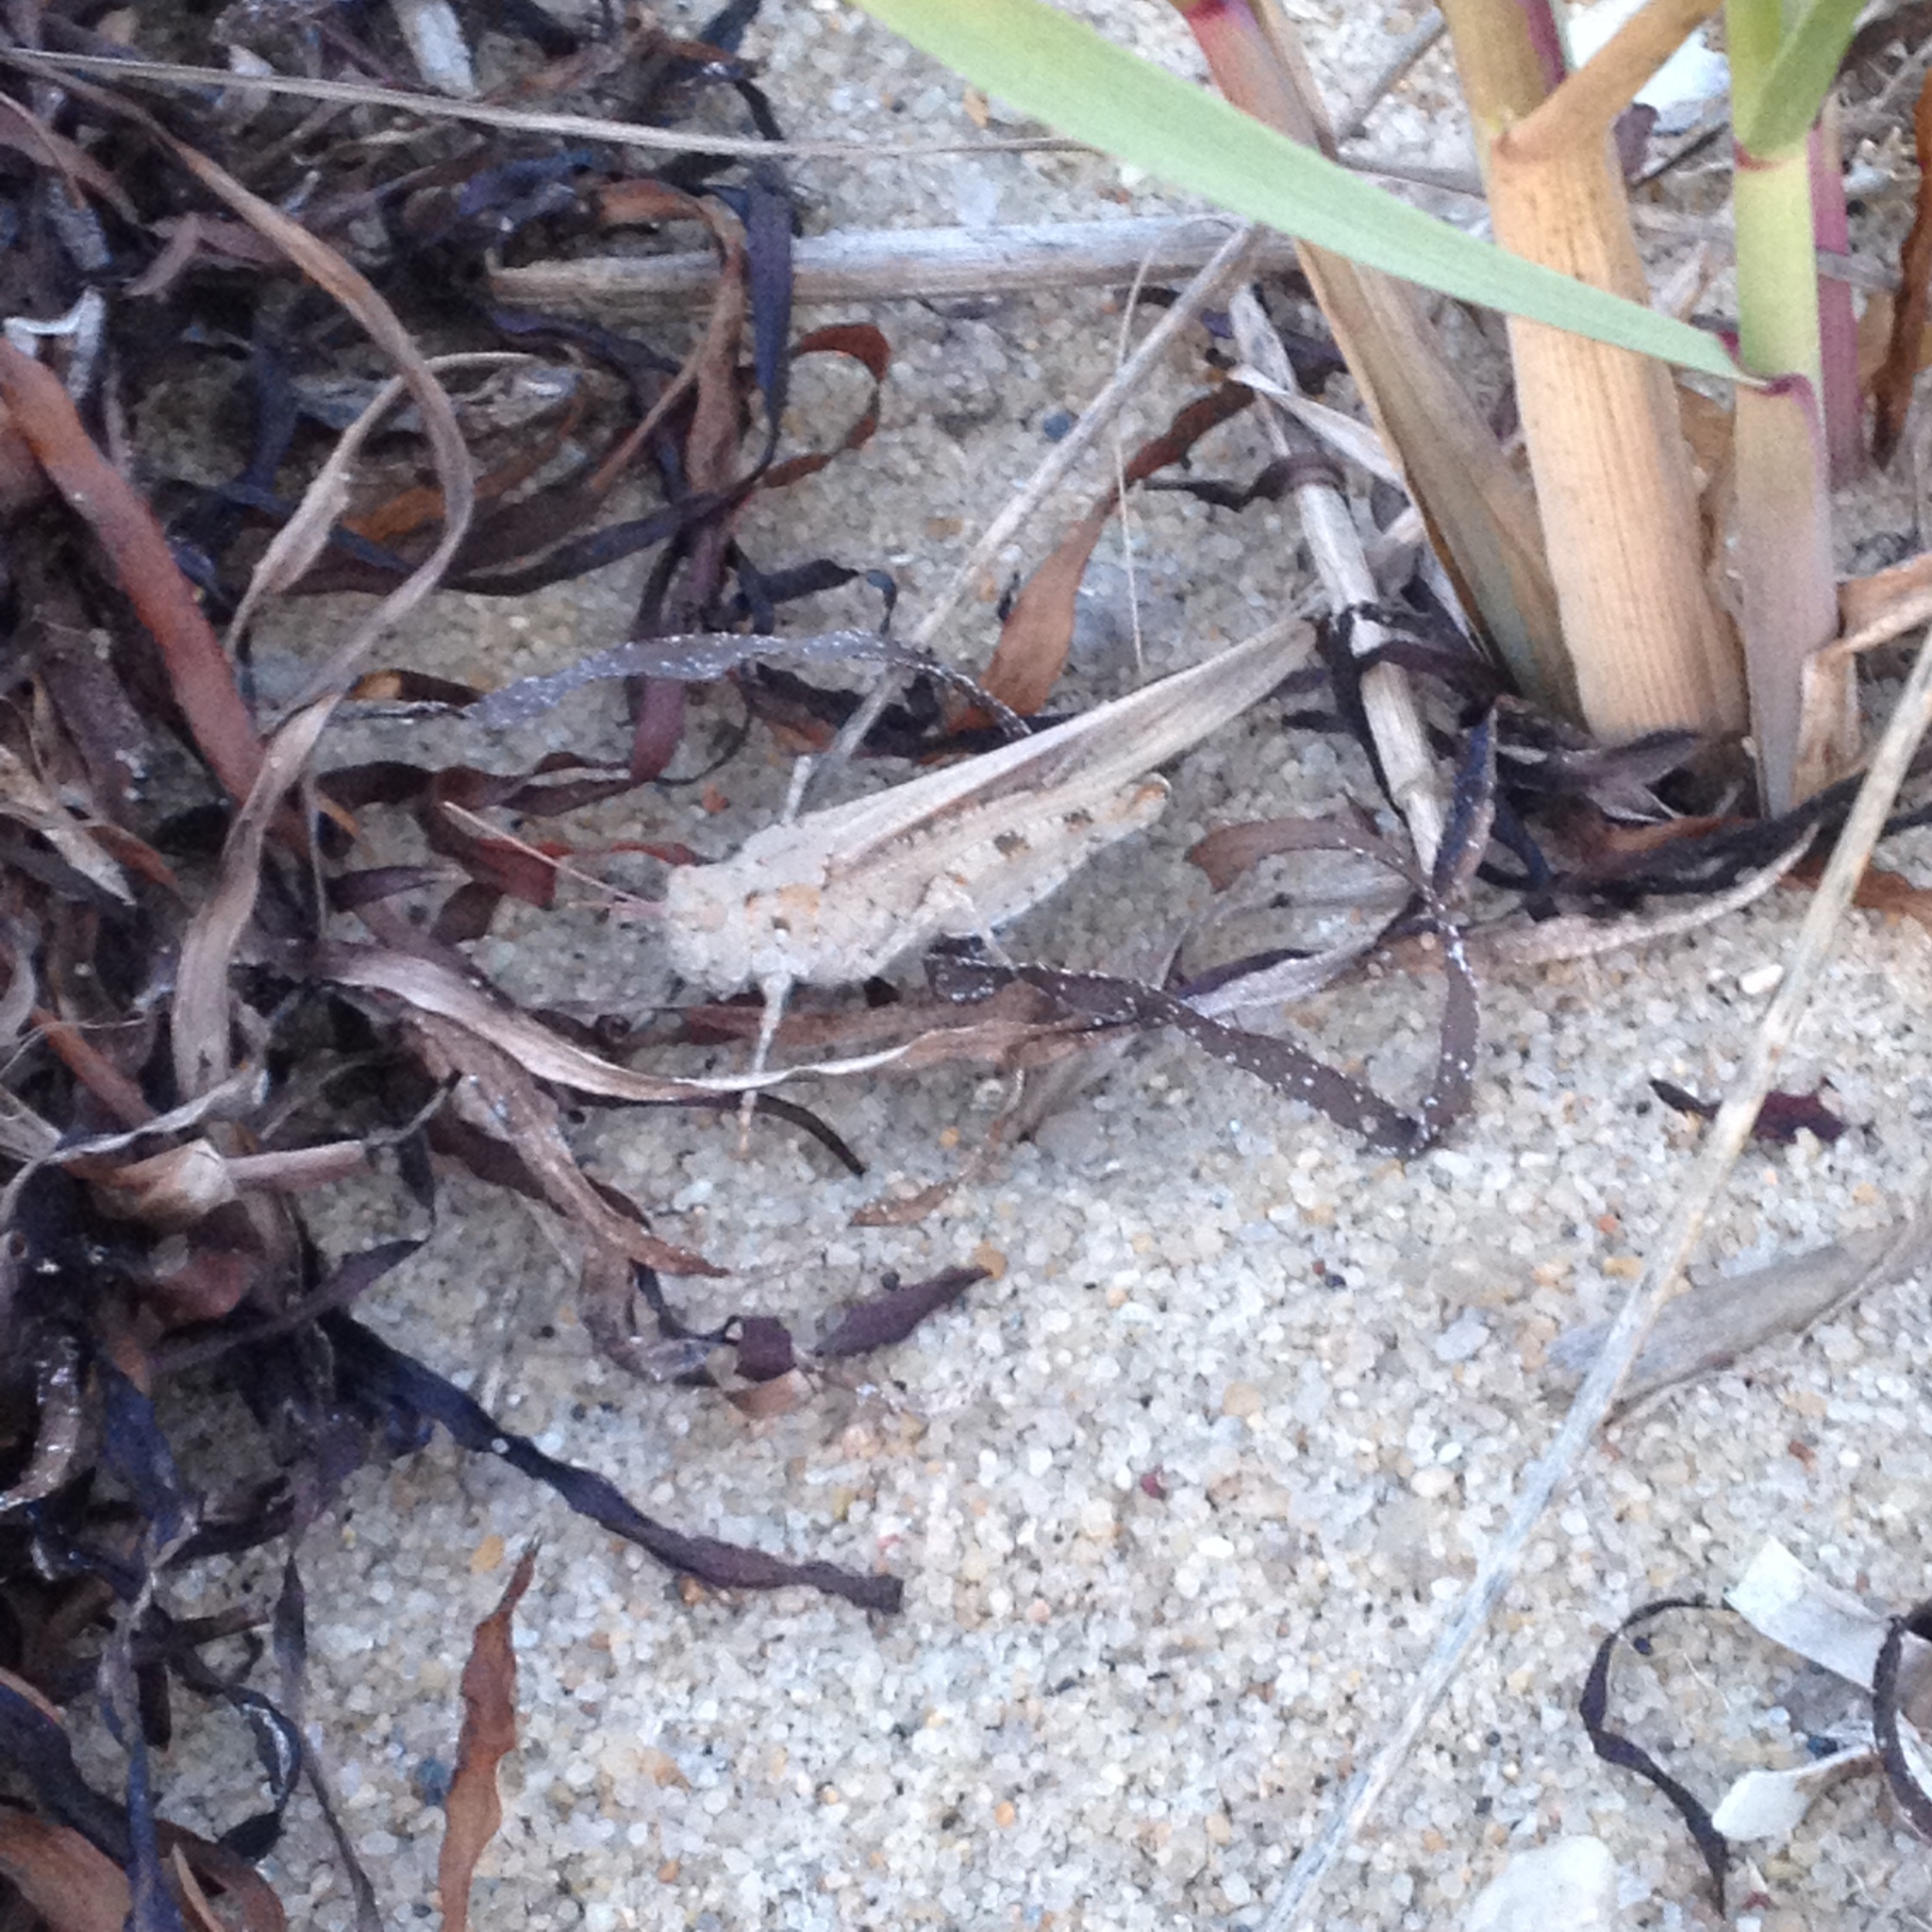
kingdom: Animalia
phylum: Arthropoda
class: Insecta
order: Orthoptera
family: Acrididae
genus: Trimerotropis
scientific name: Trimerotropis maritima
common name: Seaside locust
